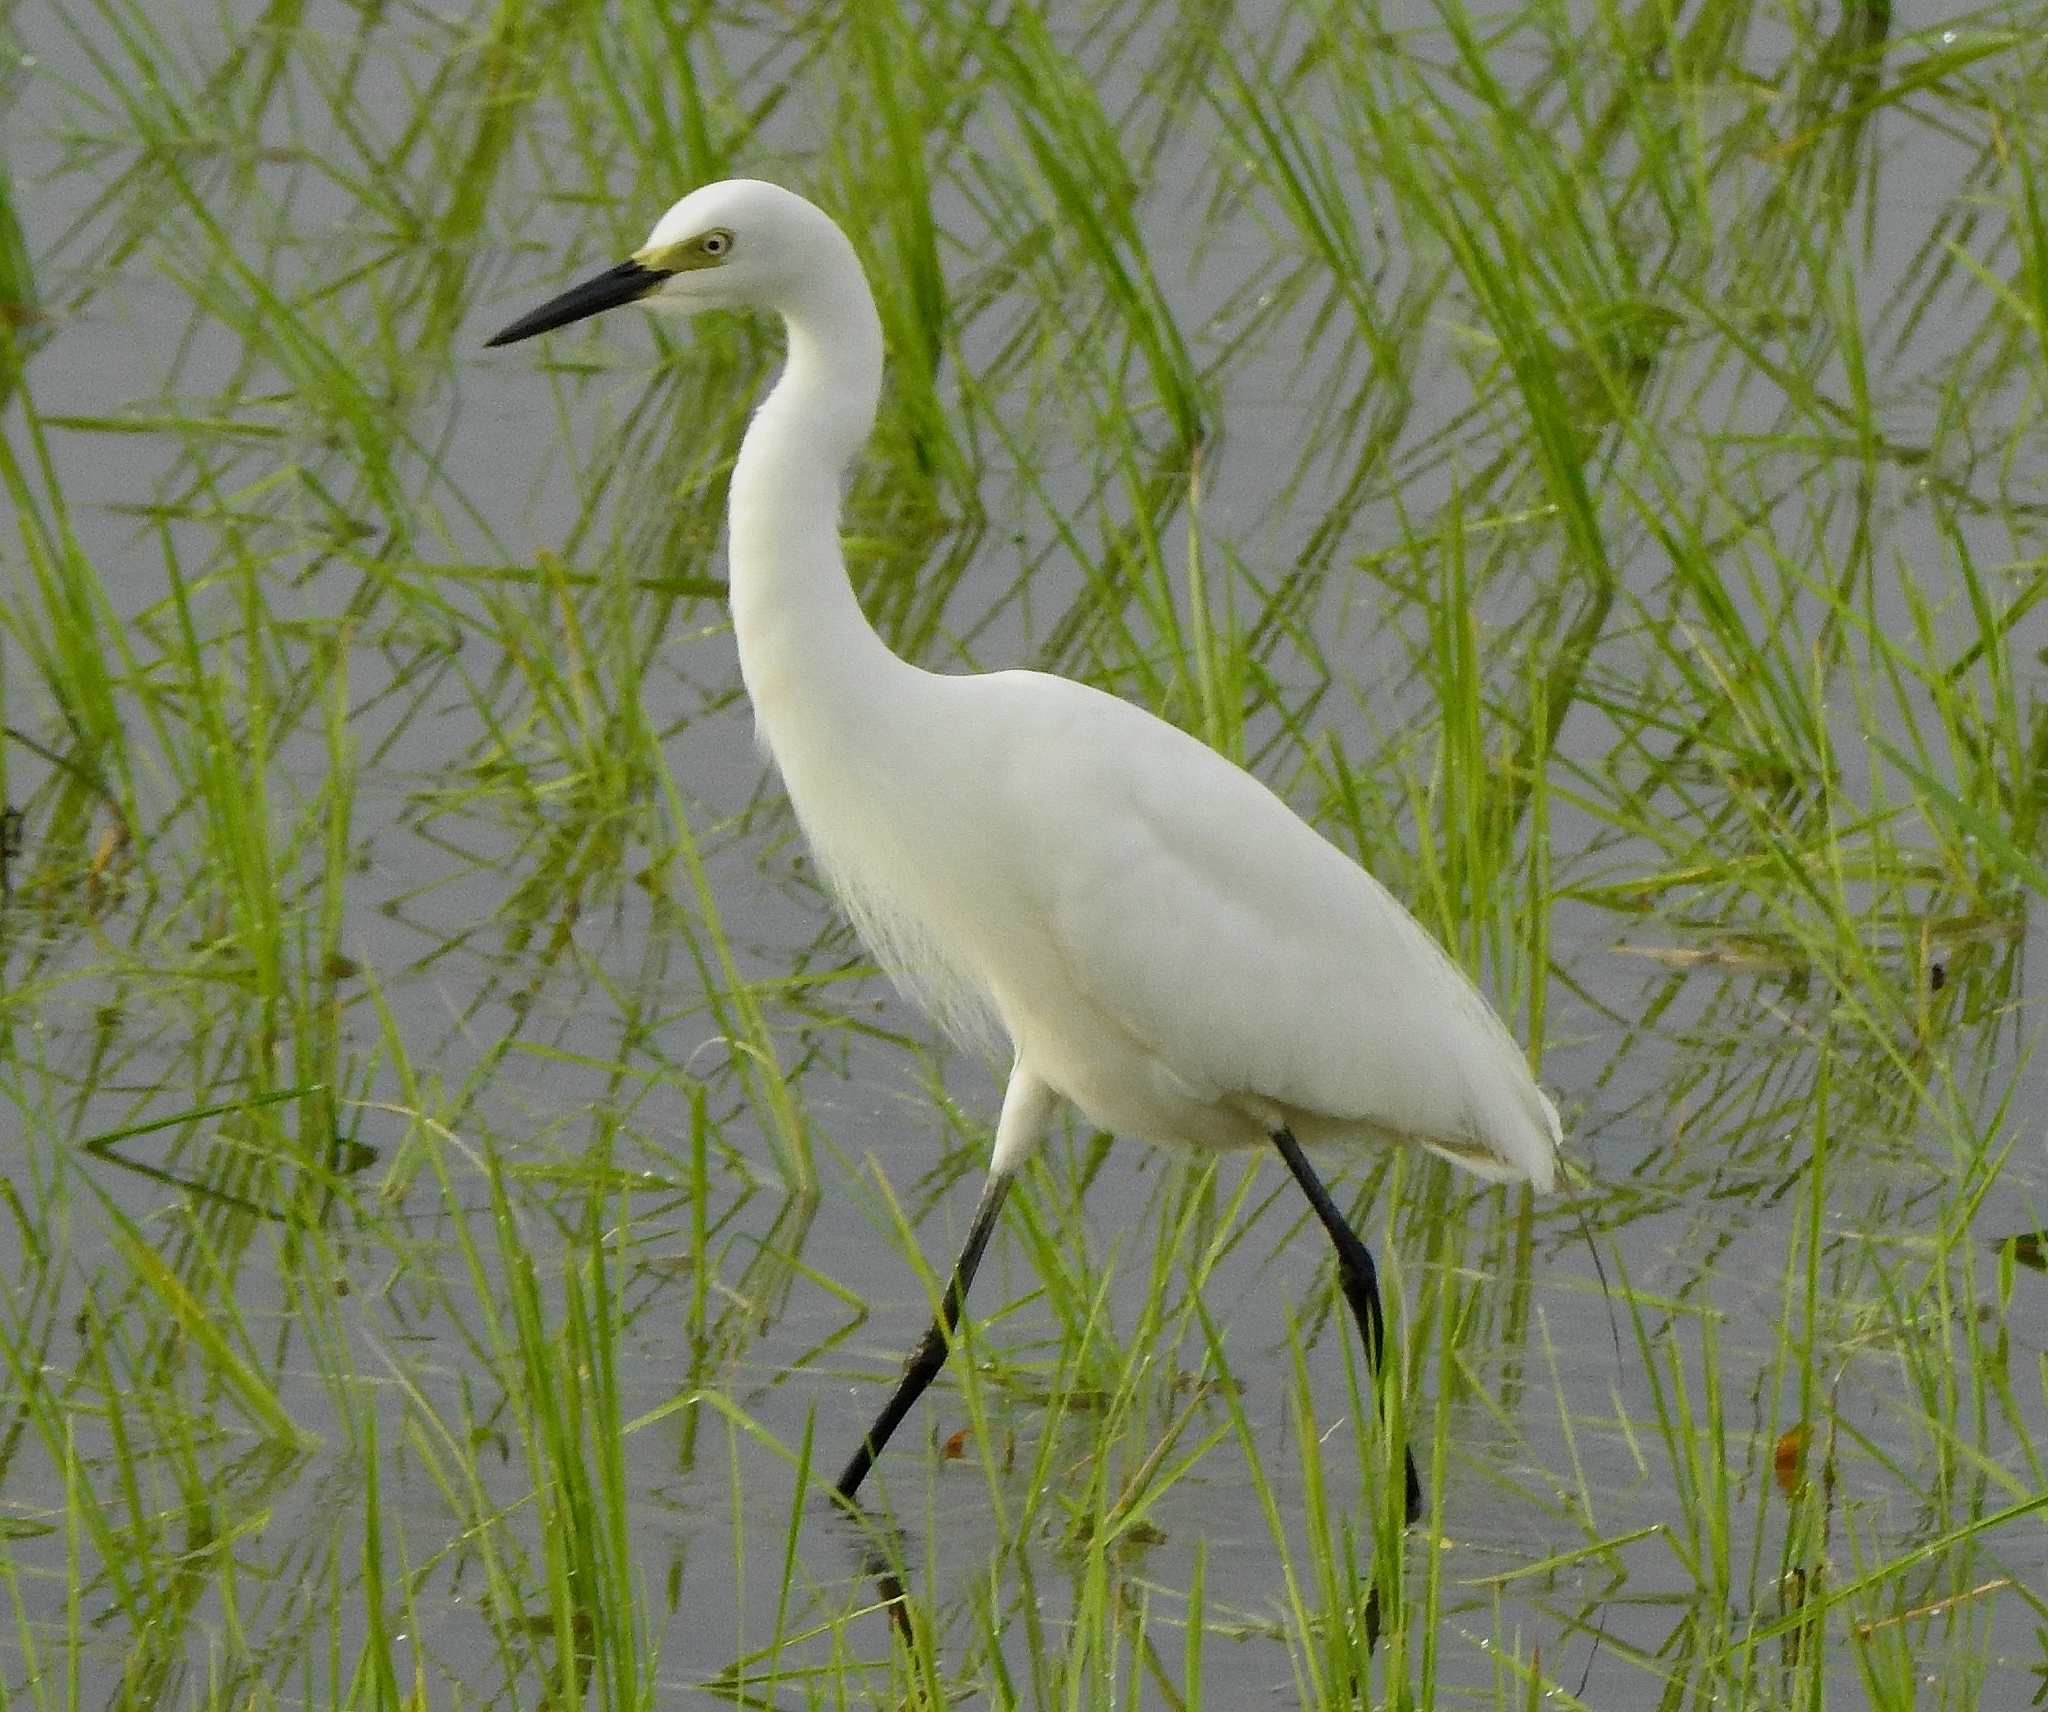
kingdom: Animalia
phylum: Chordata
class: Aves
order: Pelecaniformes
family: Ardeidae
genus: Egretta
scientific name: Egretta garzetta
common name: Little egret
